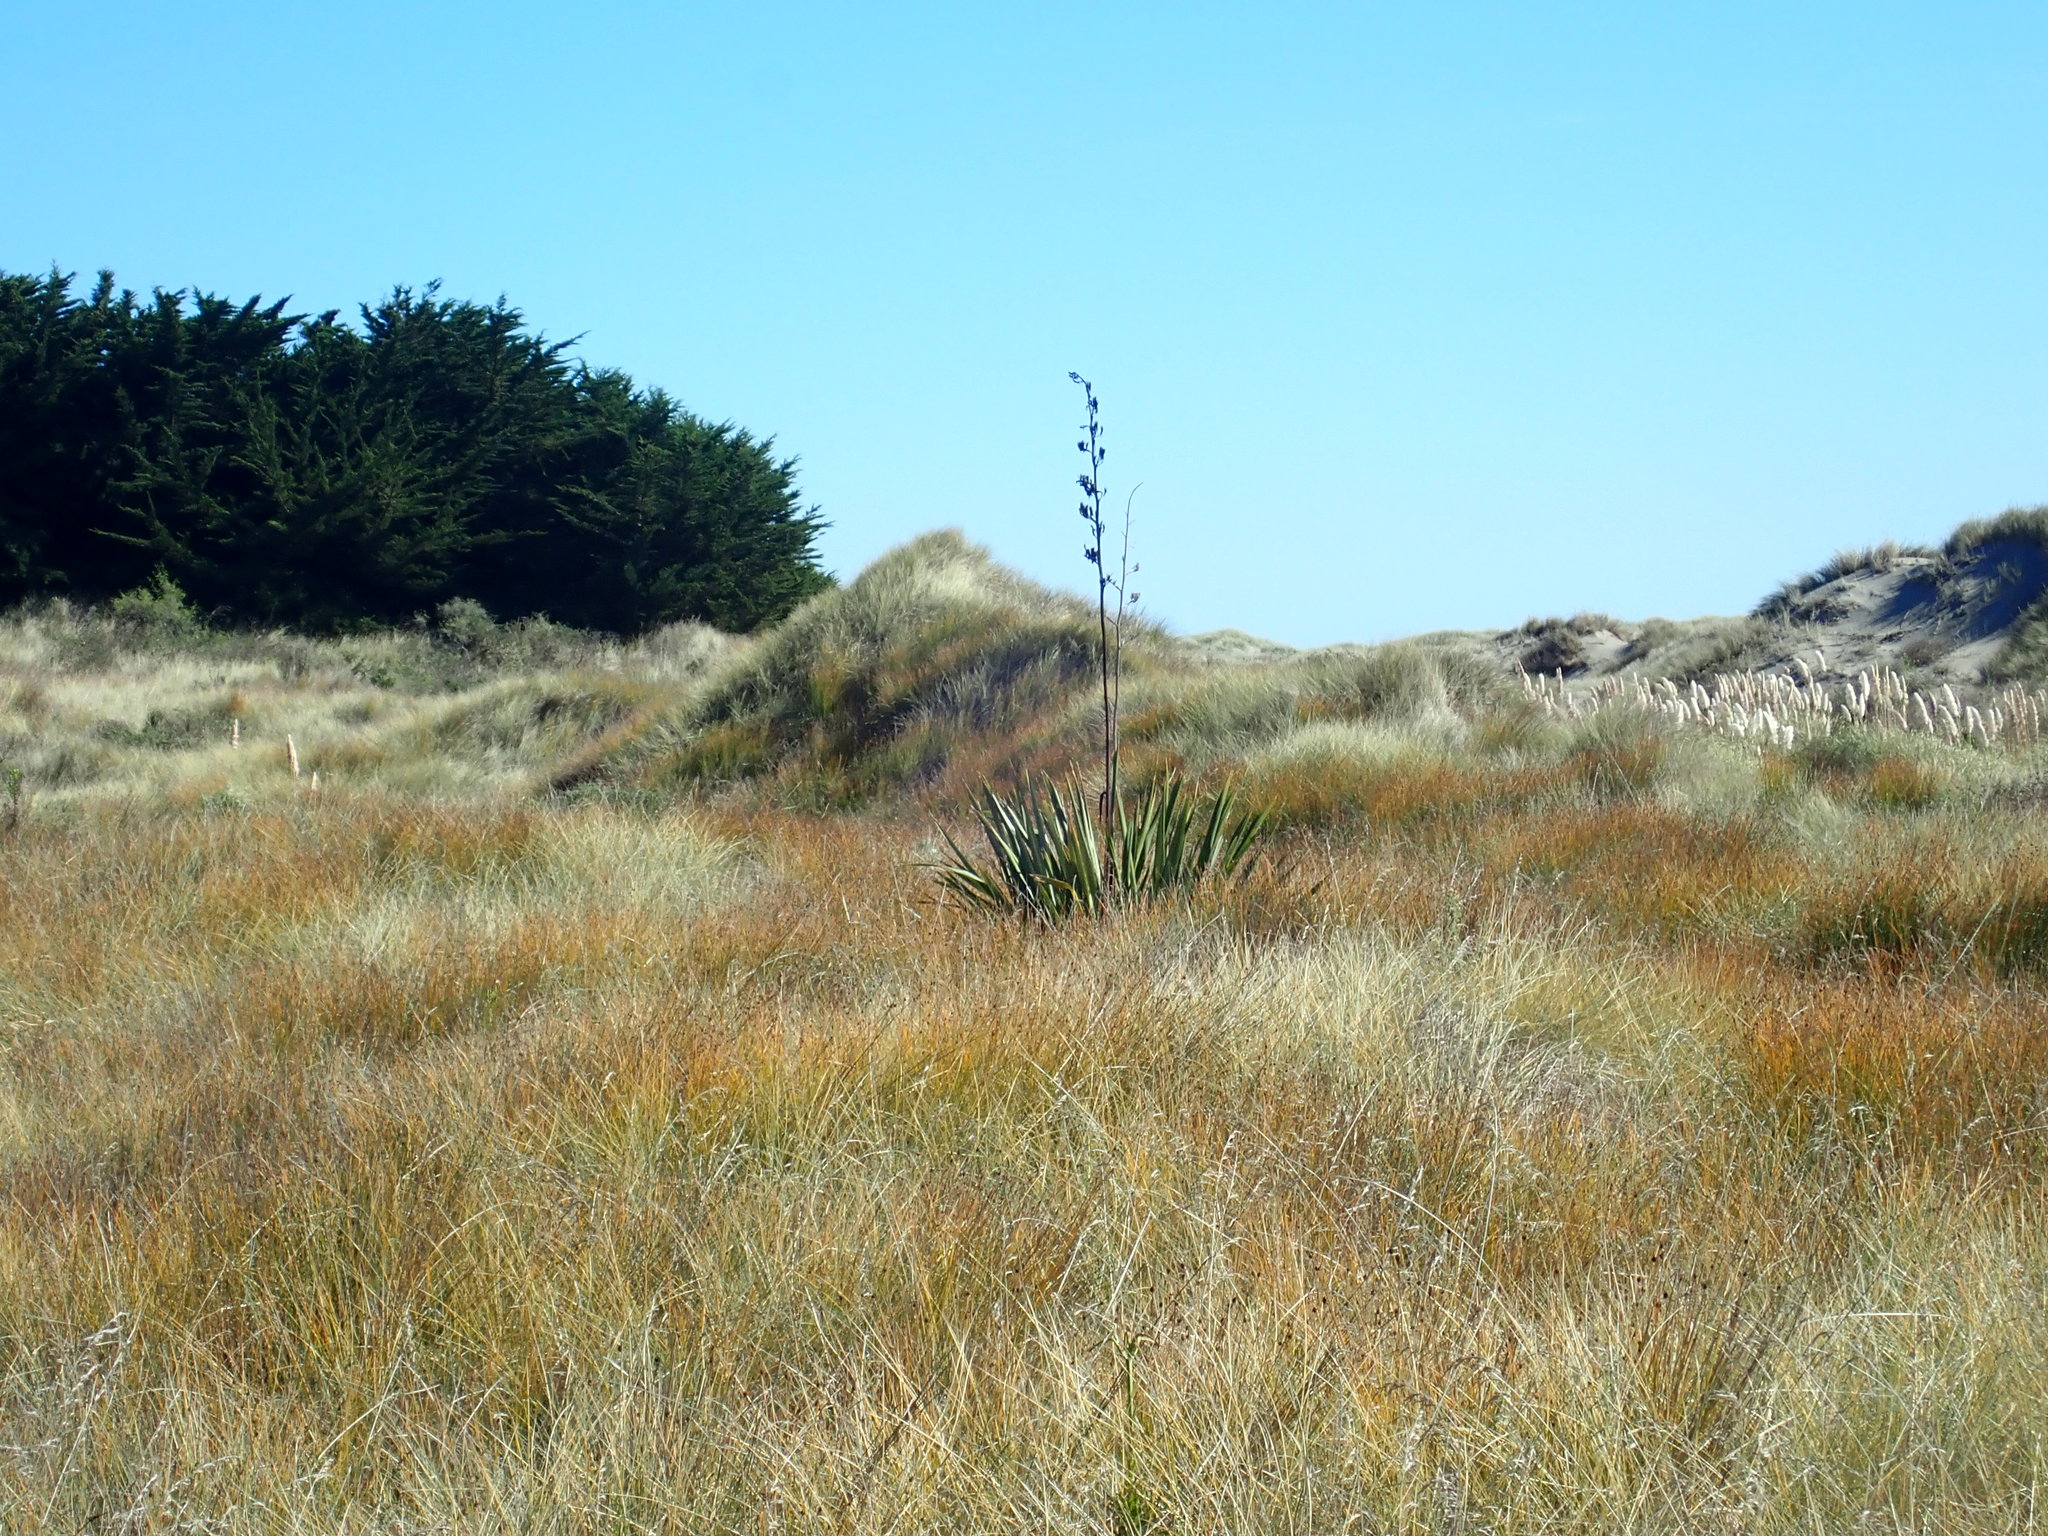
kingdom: Plantae
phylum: Tracheophyta
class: Liliopsida
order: Asparagales
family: Asphodelaceae
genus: Phormium
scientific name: Phormium tenax
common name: New zealand flax
